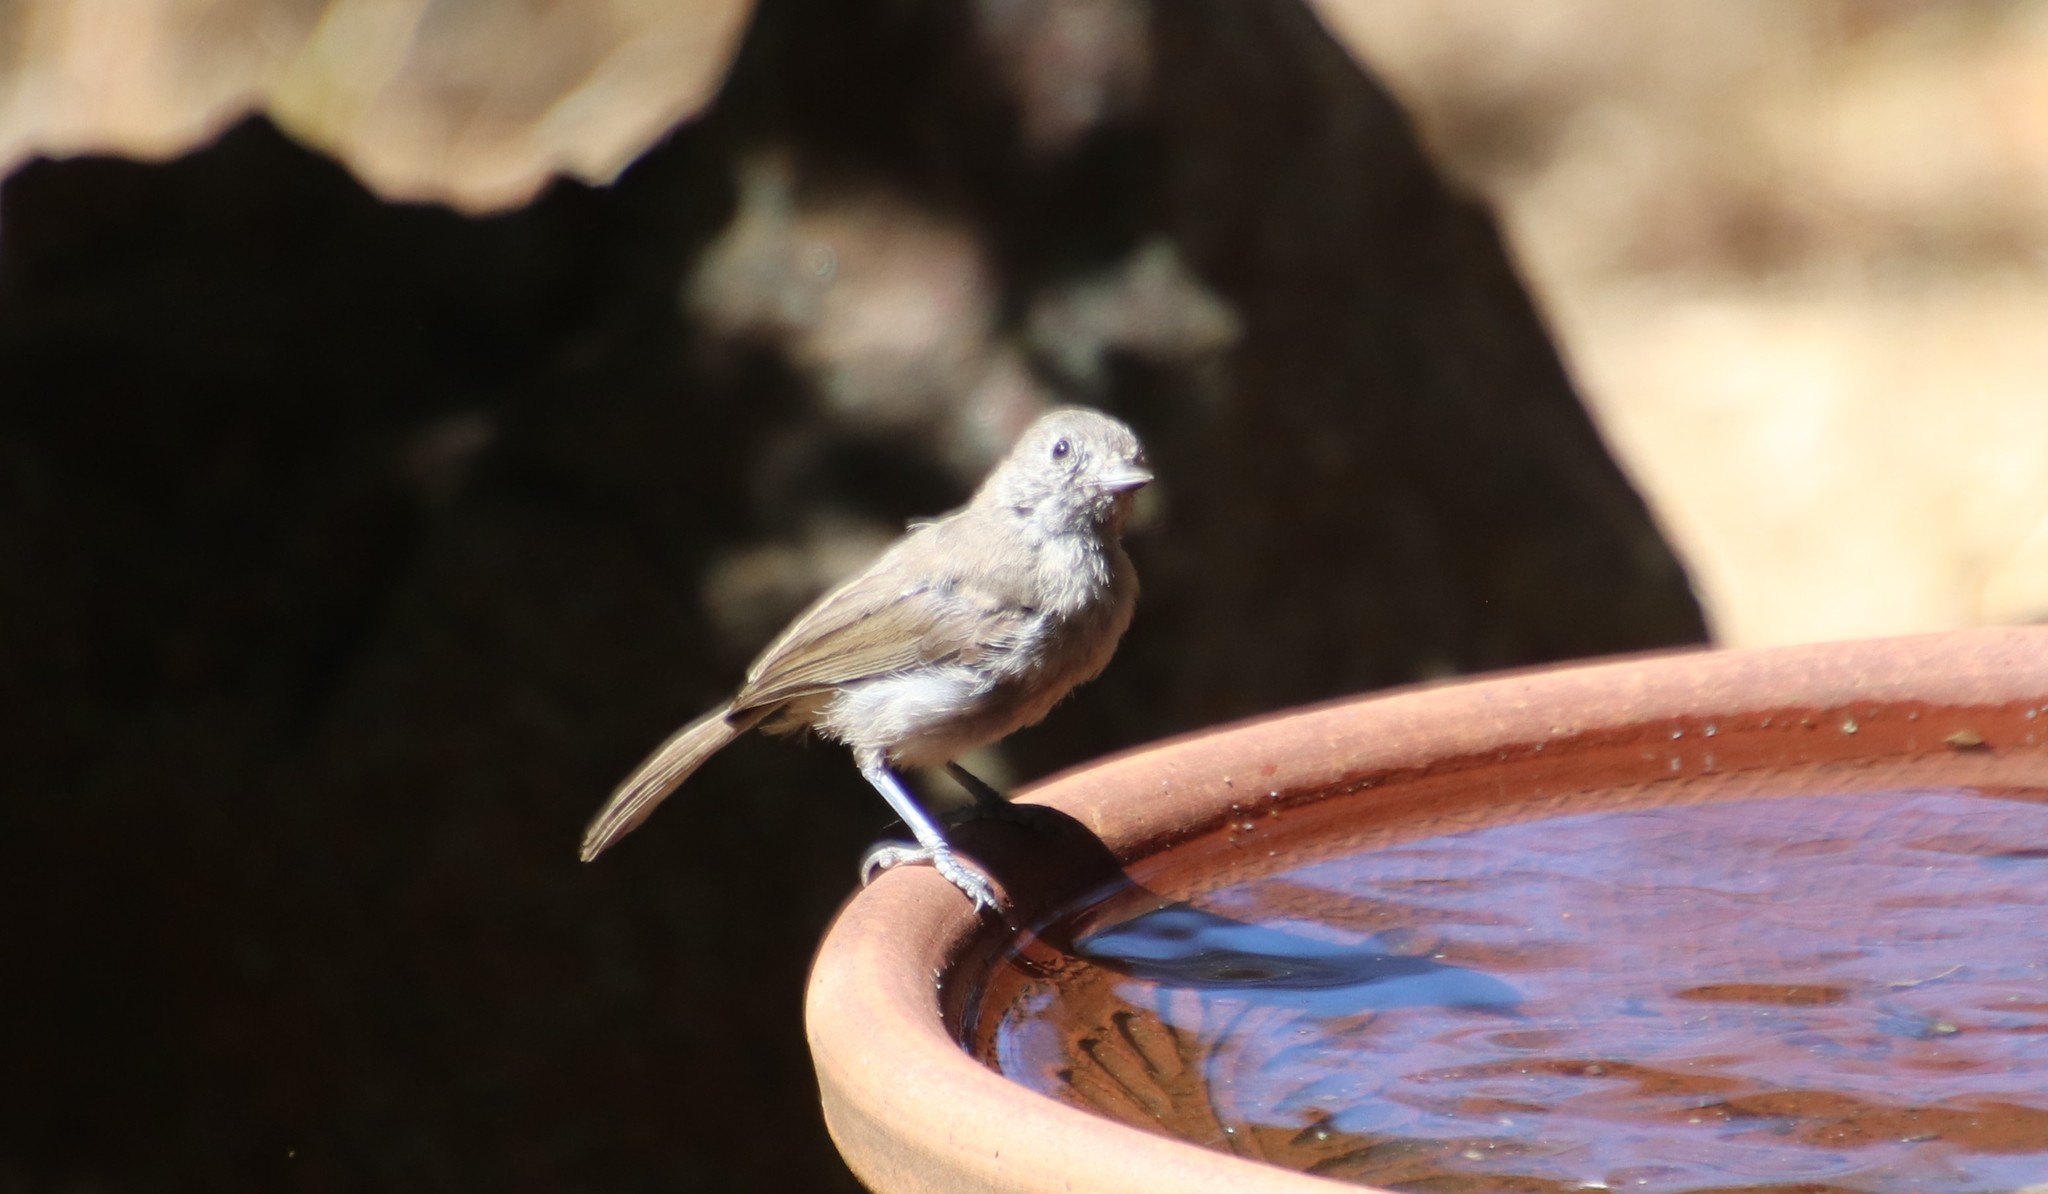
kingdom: Animalia
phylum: Chordata
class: Aves
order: Passeriformes
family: Paridae
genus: Baeolophus
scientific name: Baeolophus inornatus
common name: Oak titmouse
